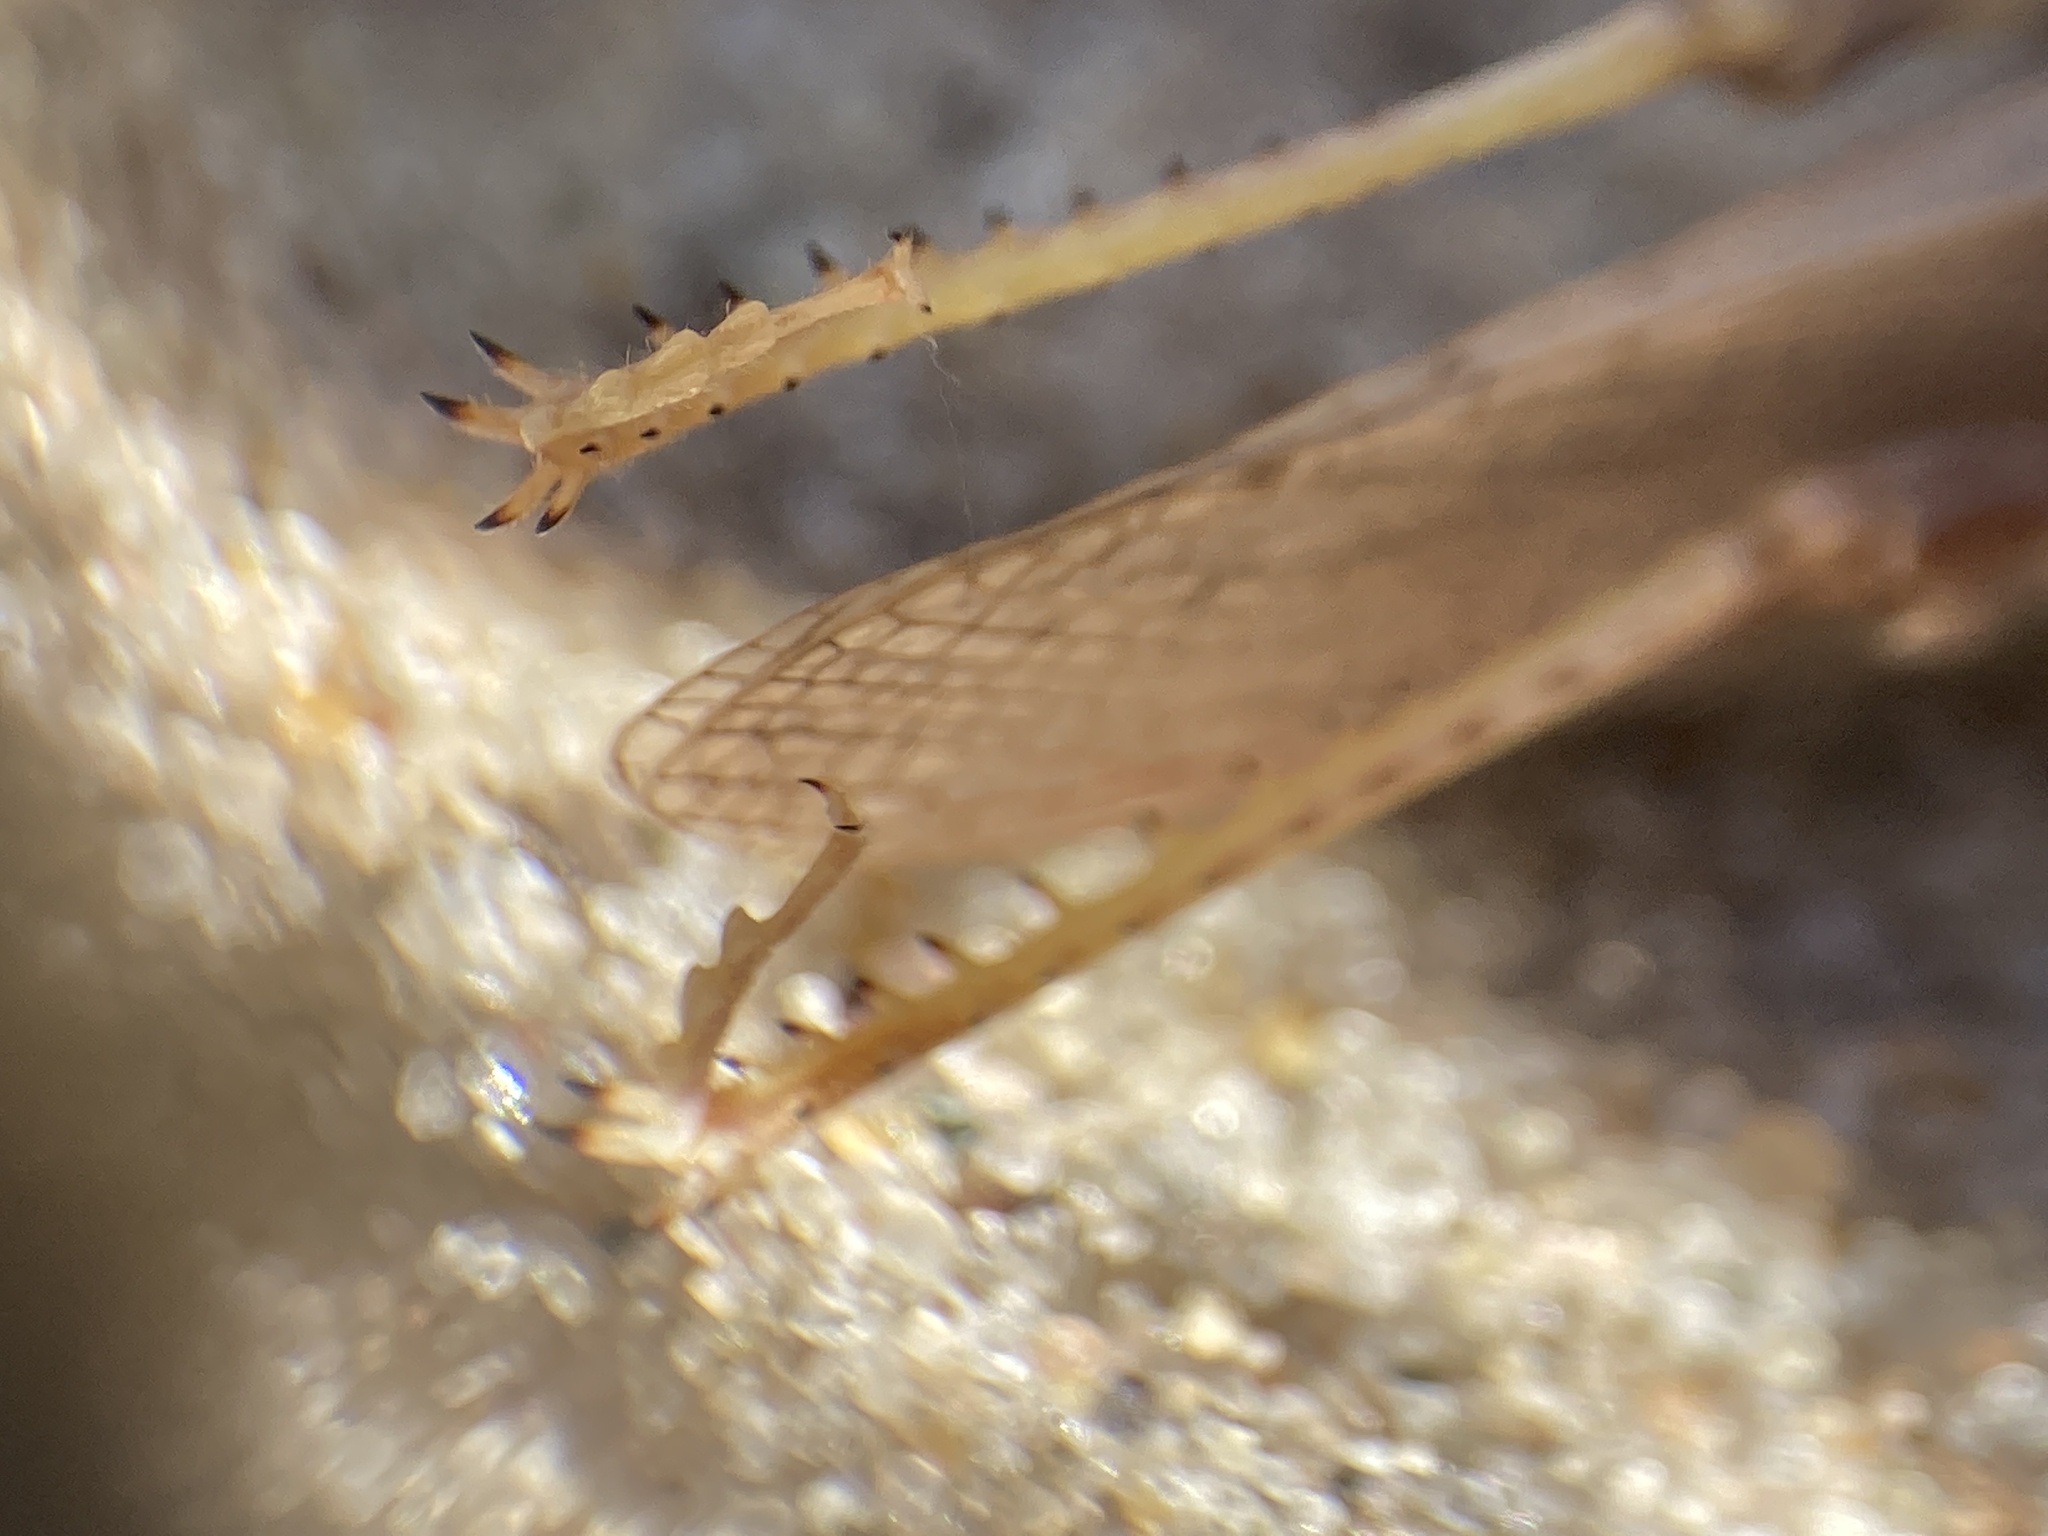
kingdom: Animalia
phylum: Arthropoda
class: Insecta
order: Orthoptera
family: Acrididae
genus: Trimerotropis
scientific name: Trimerotropis huroniana
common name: Lake huron locust
